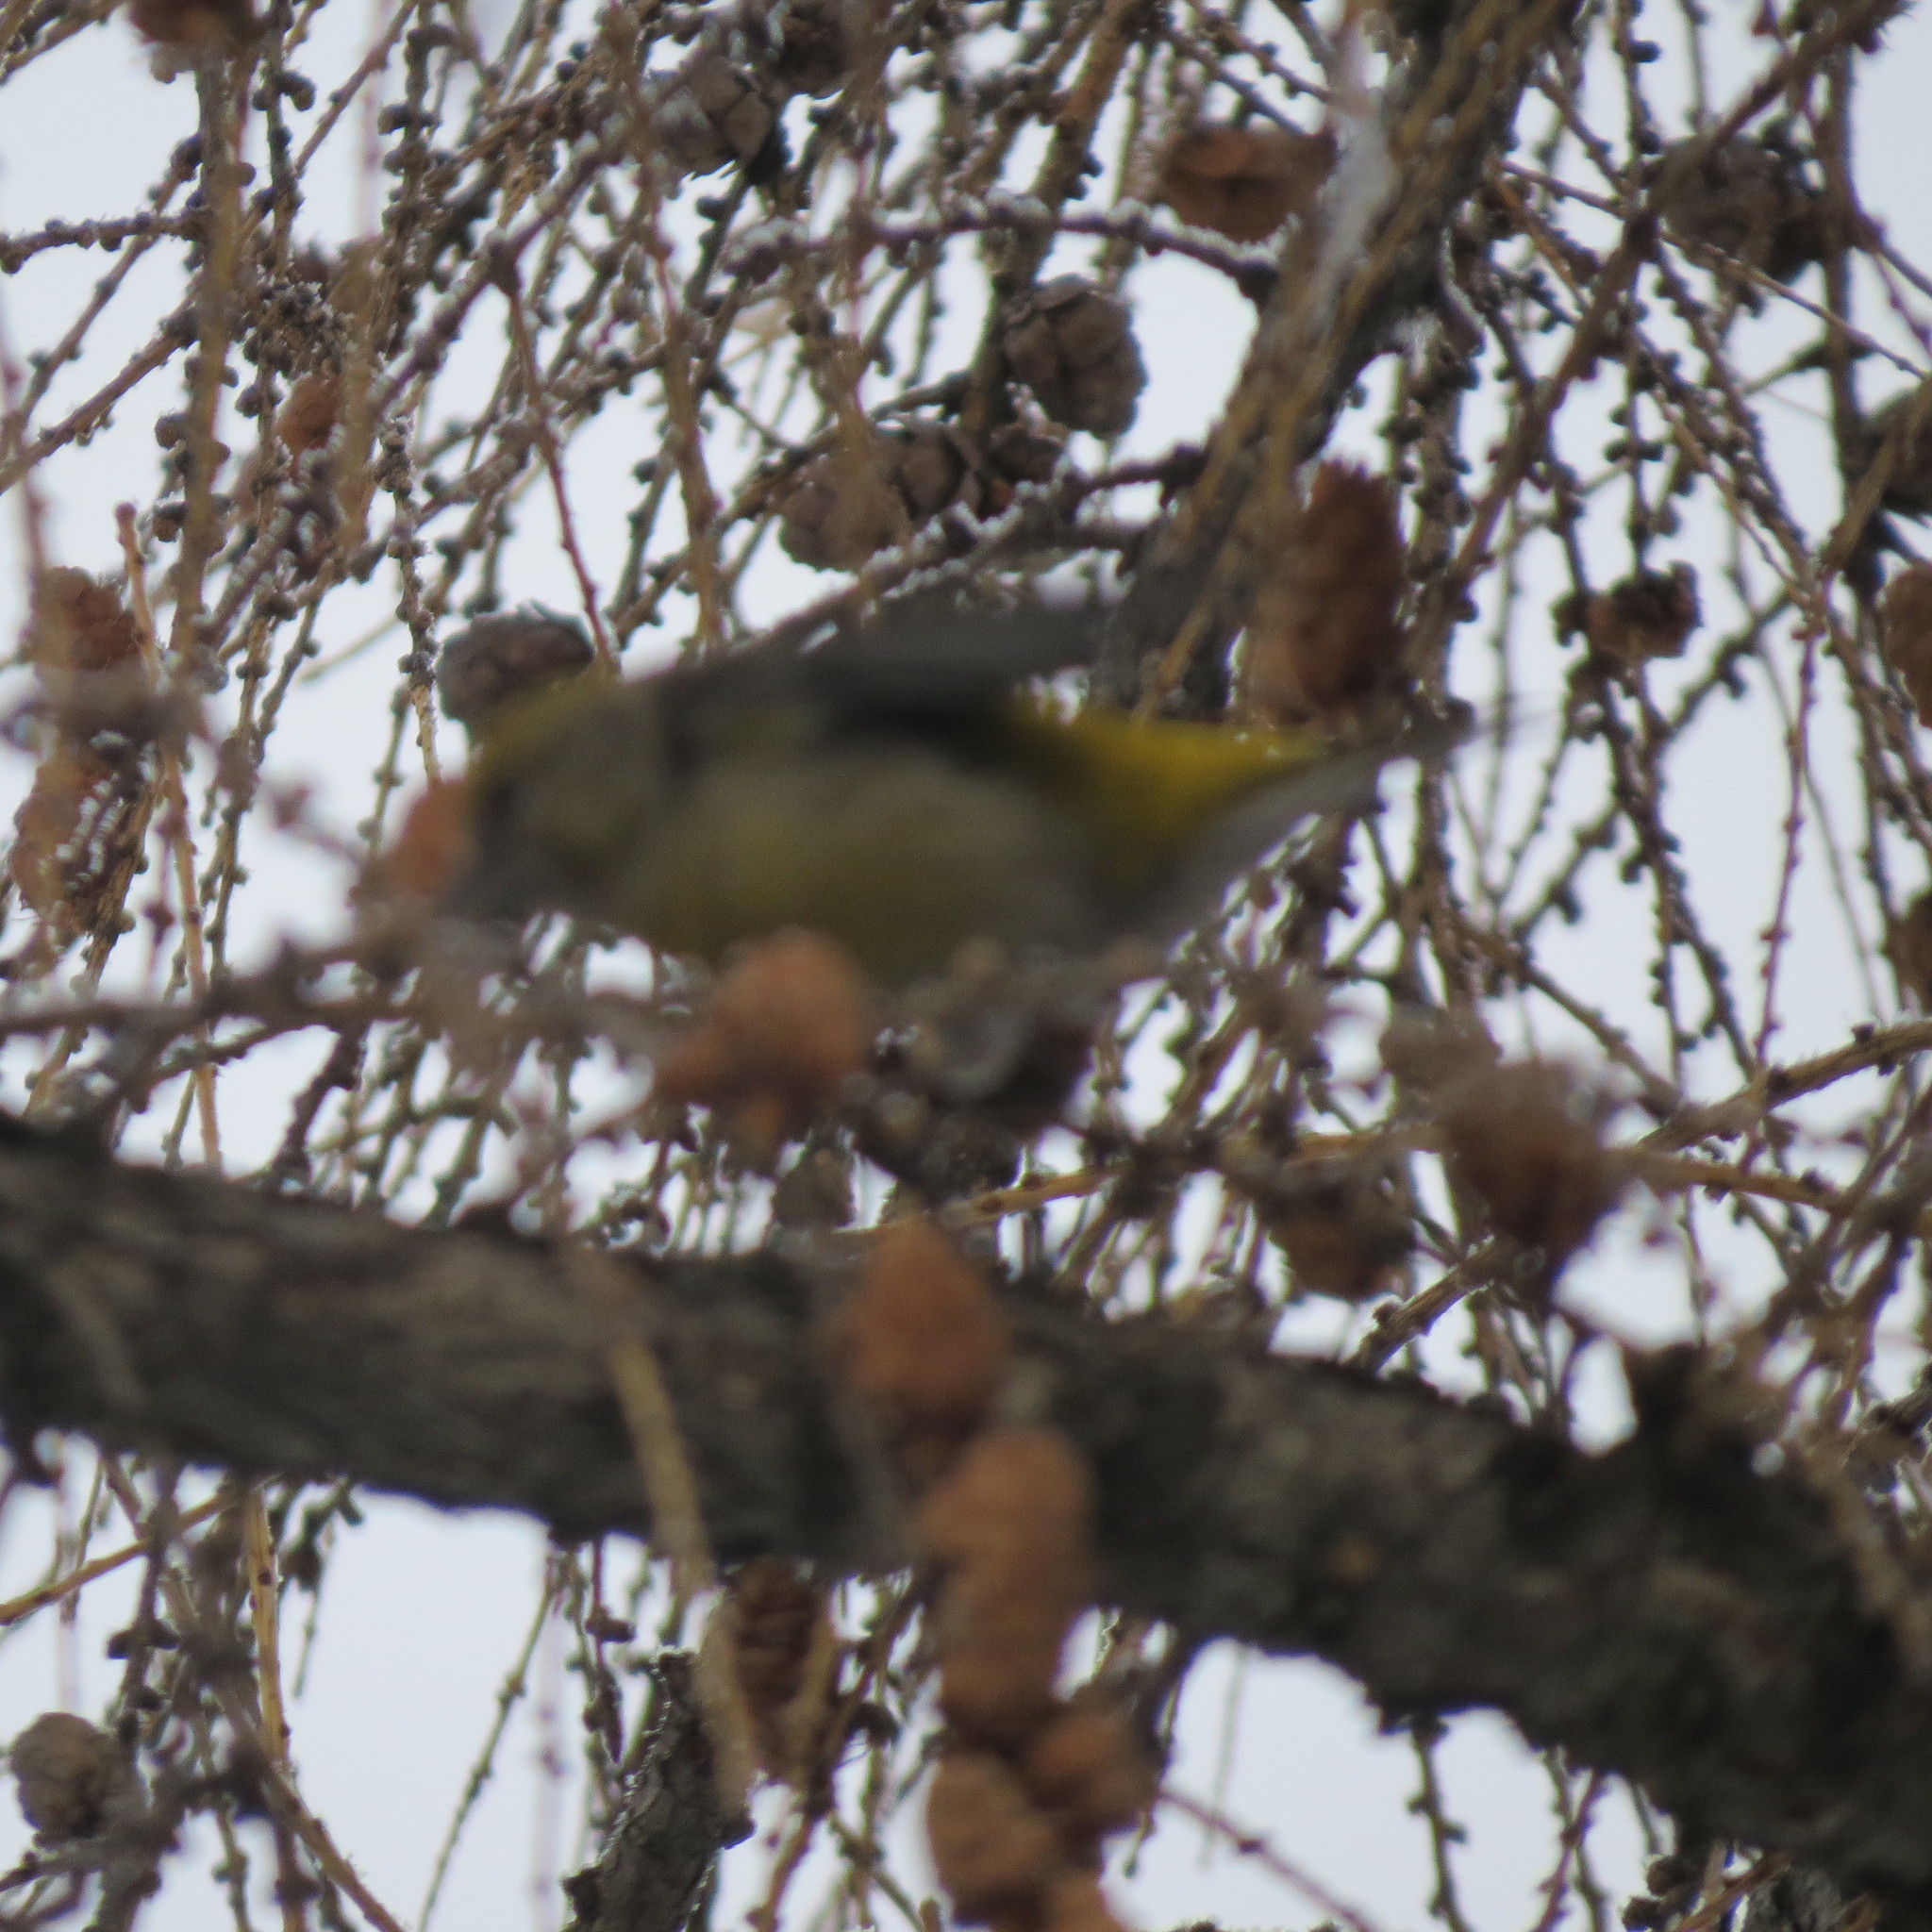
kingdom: Animalia
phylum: Chordata
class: Aves
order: Passeriformes
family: Fringillidae
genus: Loxia
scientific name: Loxia curvirostra
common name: Red crossbill
